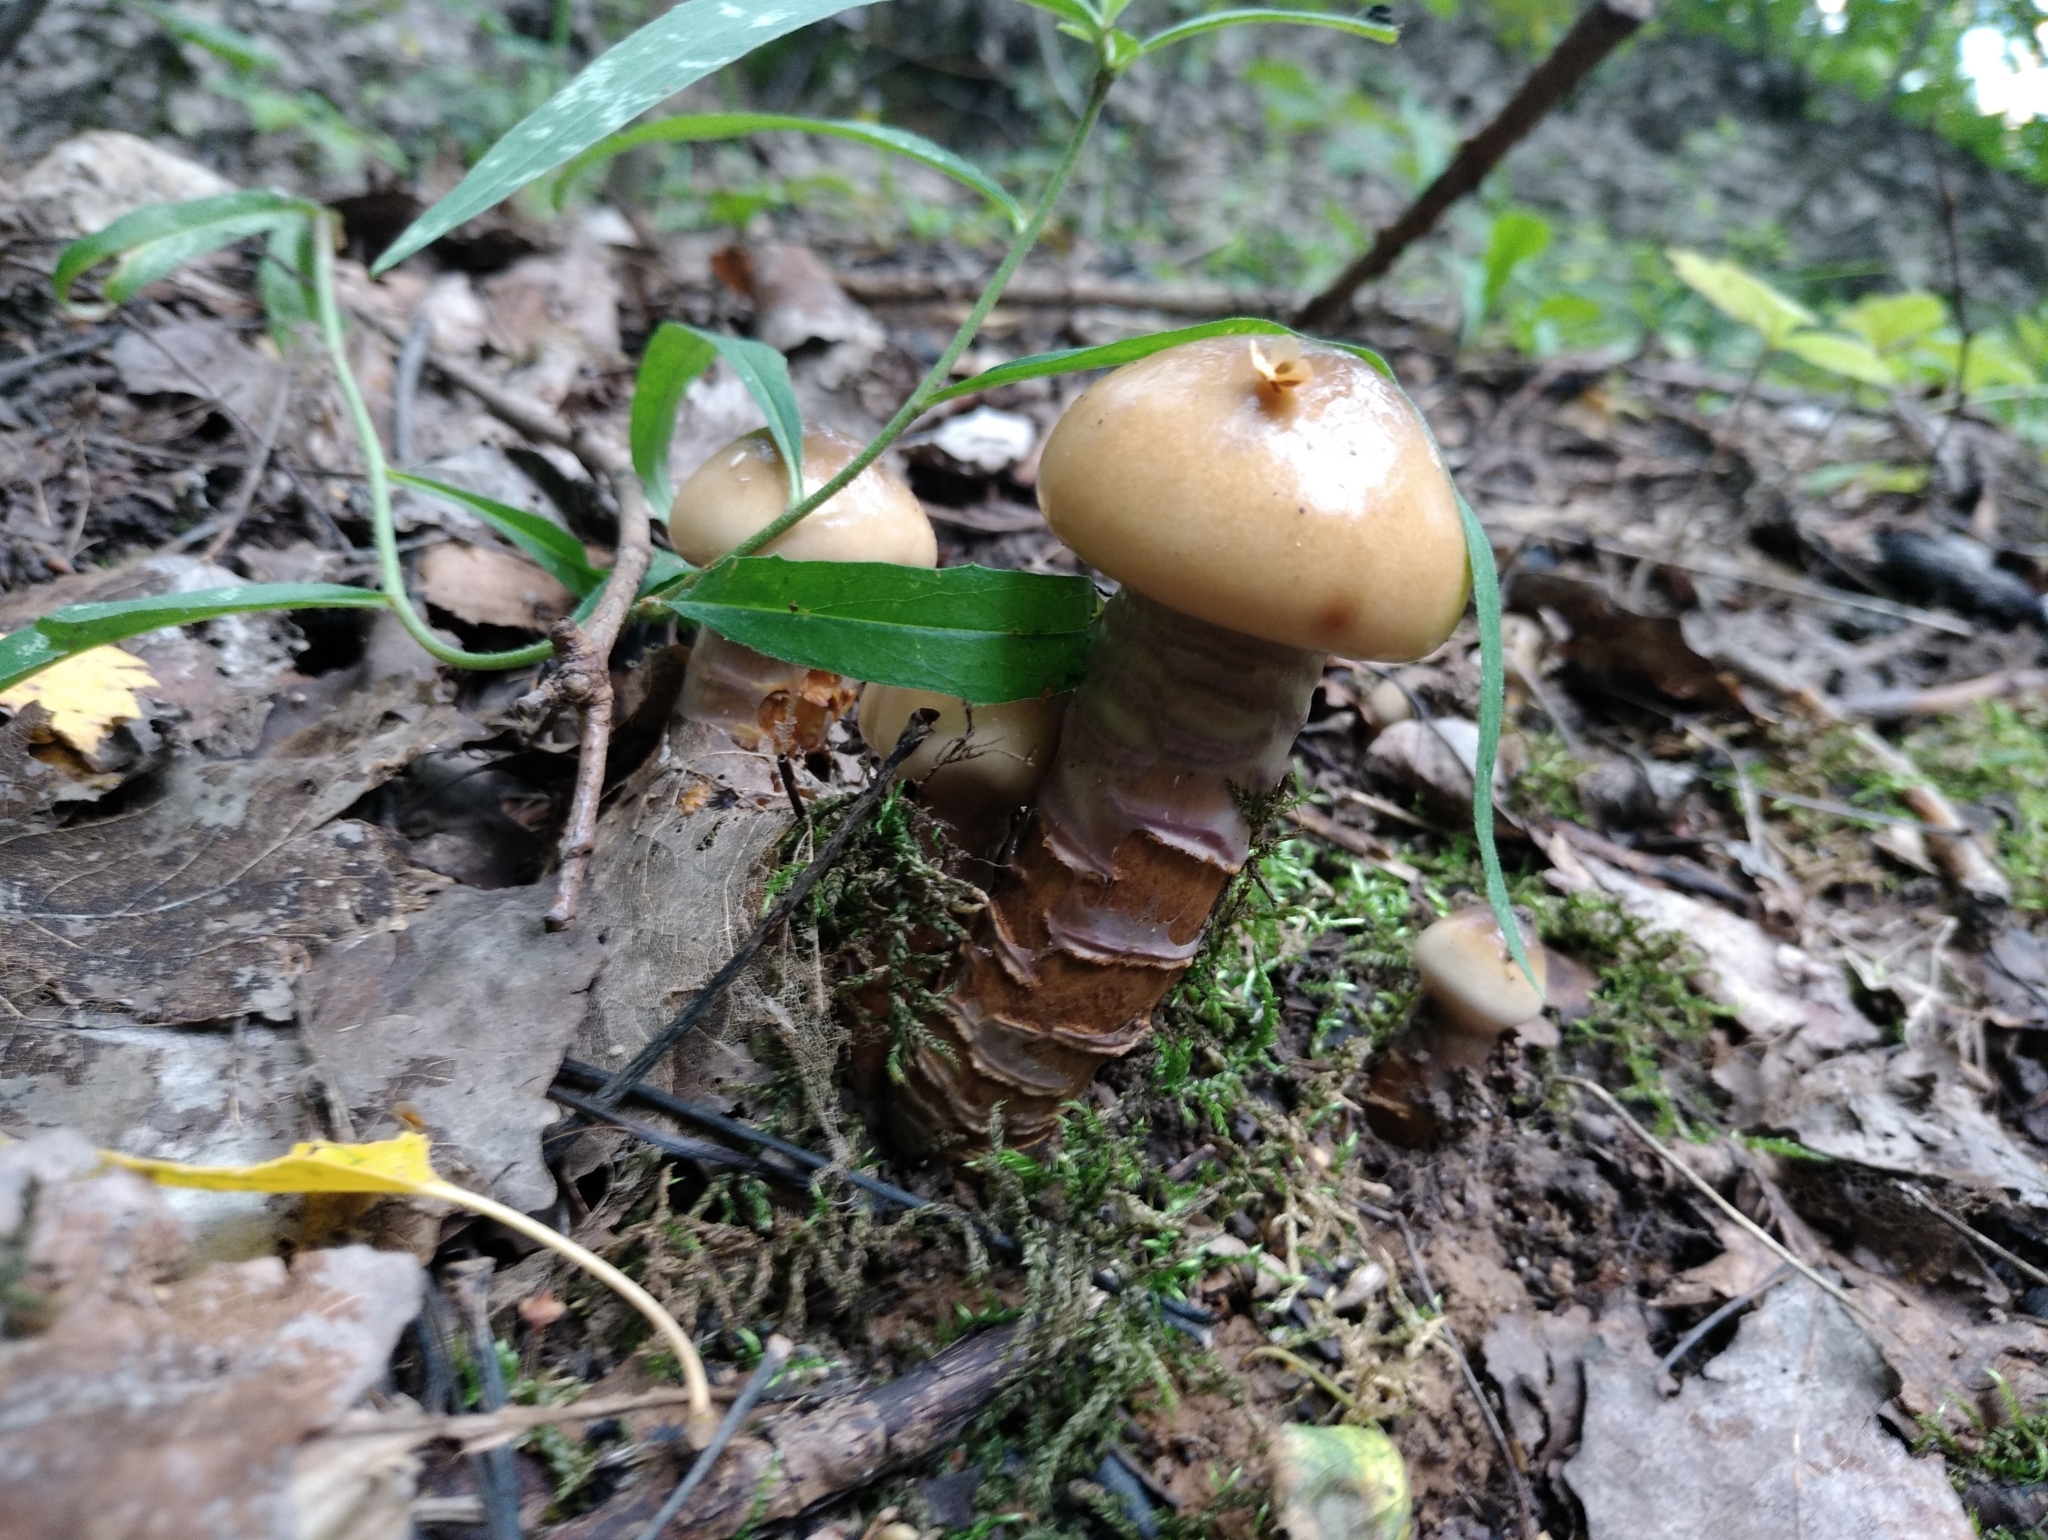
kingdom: Fungi
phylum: Basidiomycota
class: Agaricomycetes
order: Agaricales
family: Cortinariaceae
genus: Cortinarius
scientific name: Cortinarius trivialis
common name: Girdled webcap
